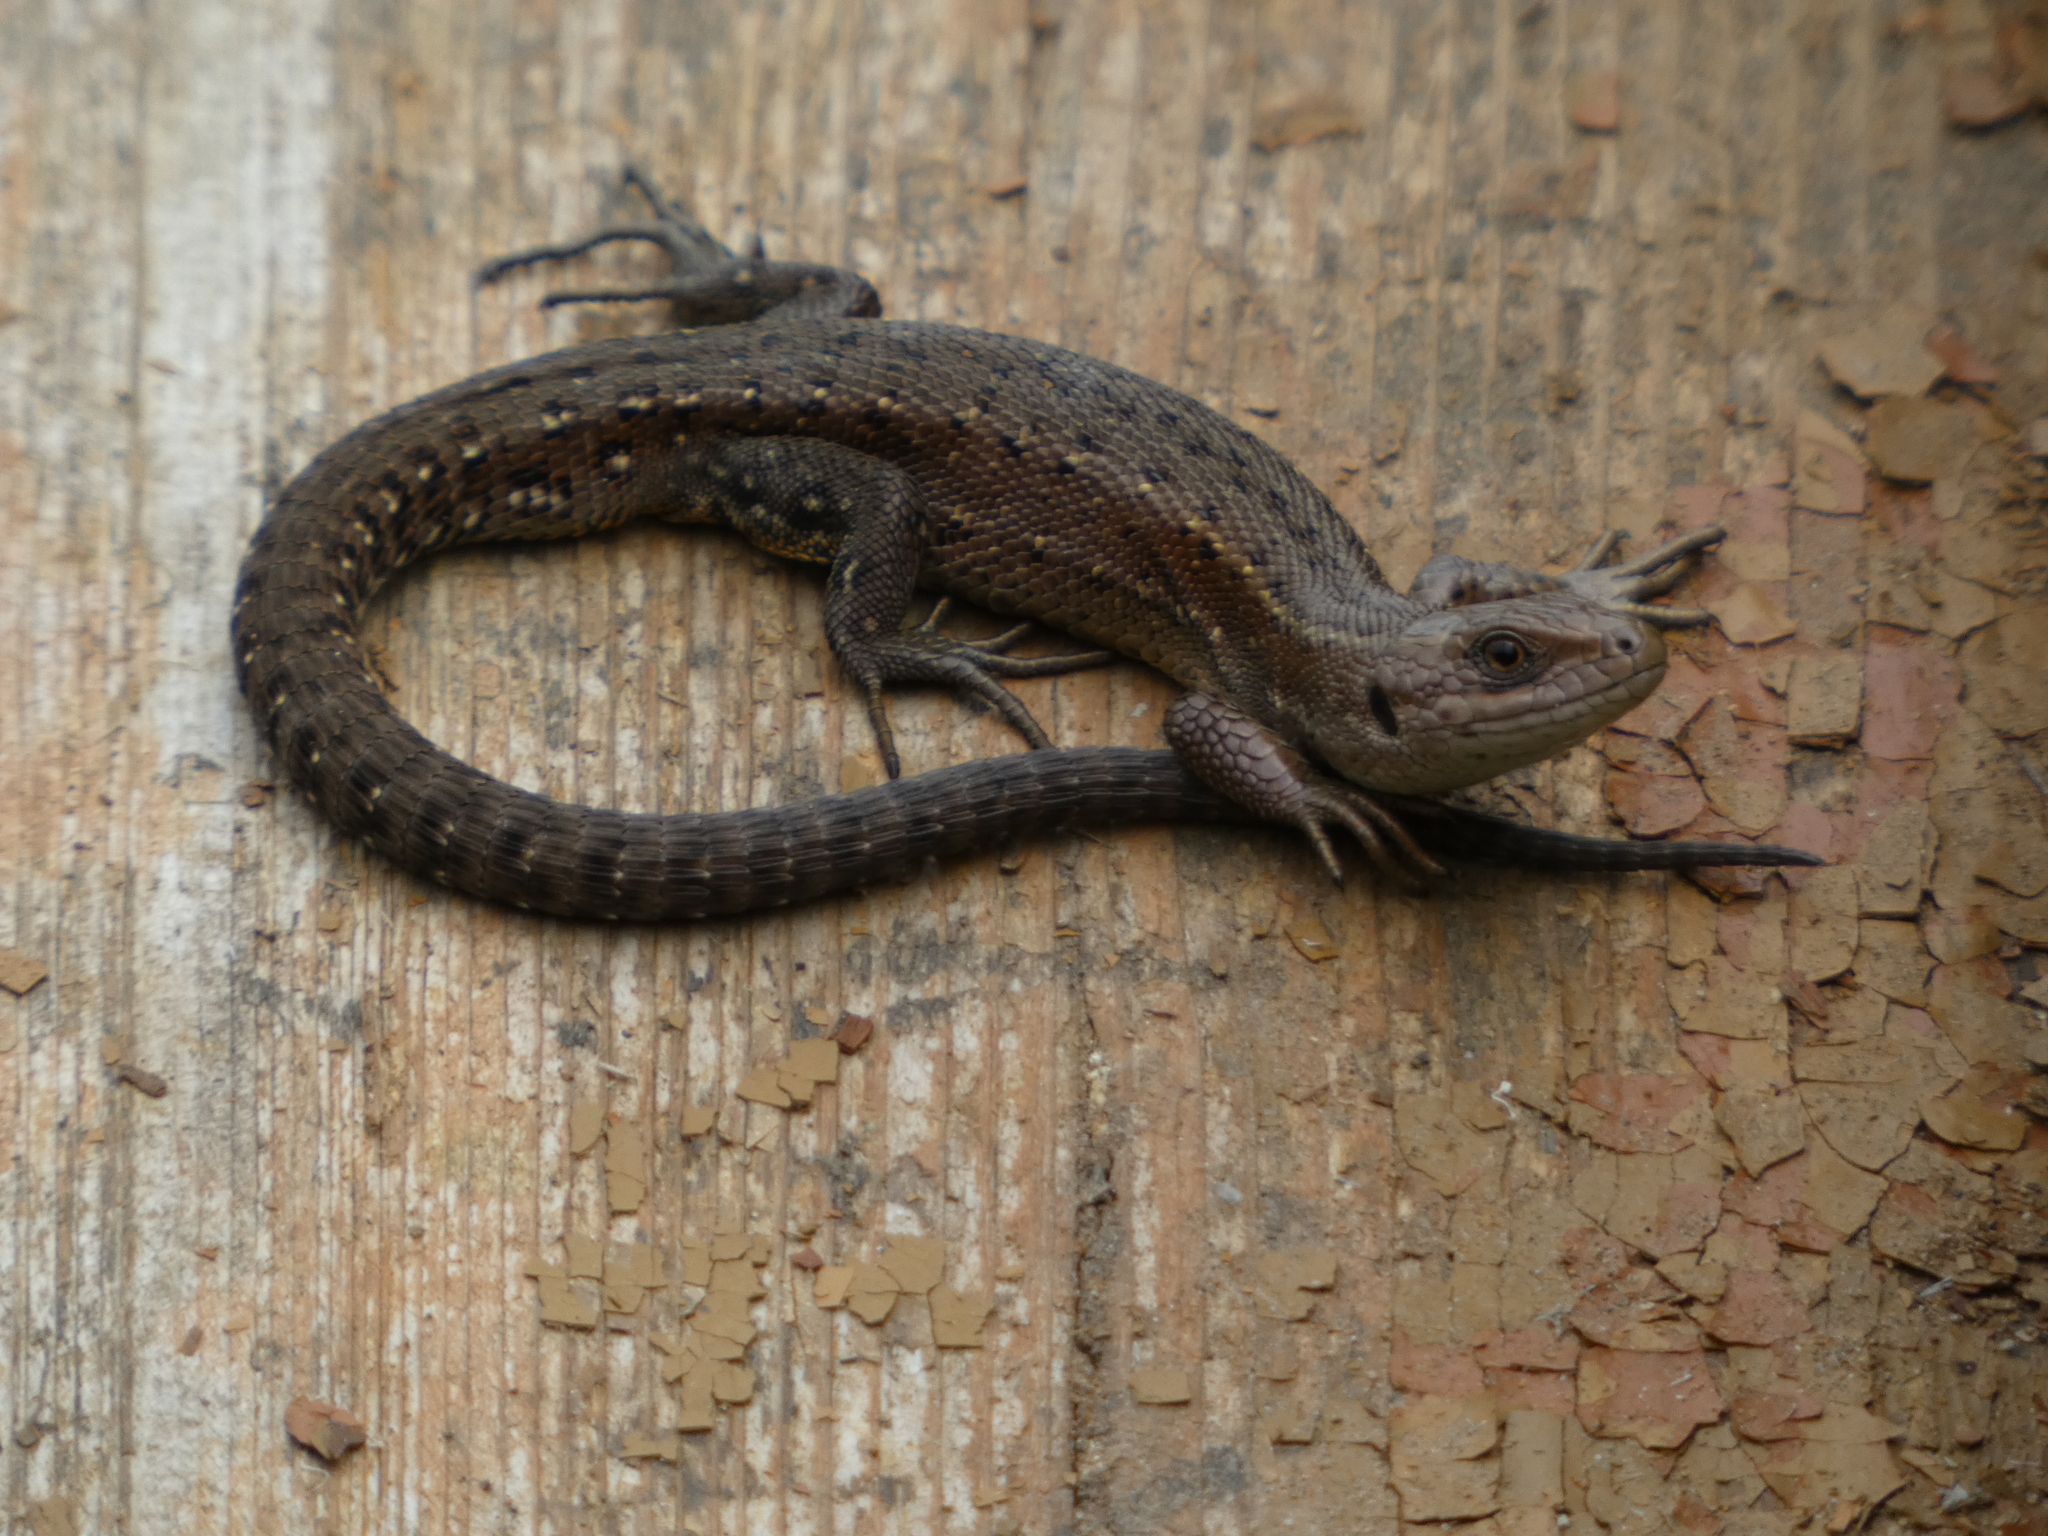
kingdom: Animalia
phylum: Chordata
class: Squamata
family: Lacertidae
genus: Zootoca
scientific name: Zootoca vivipara
